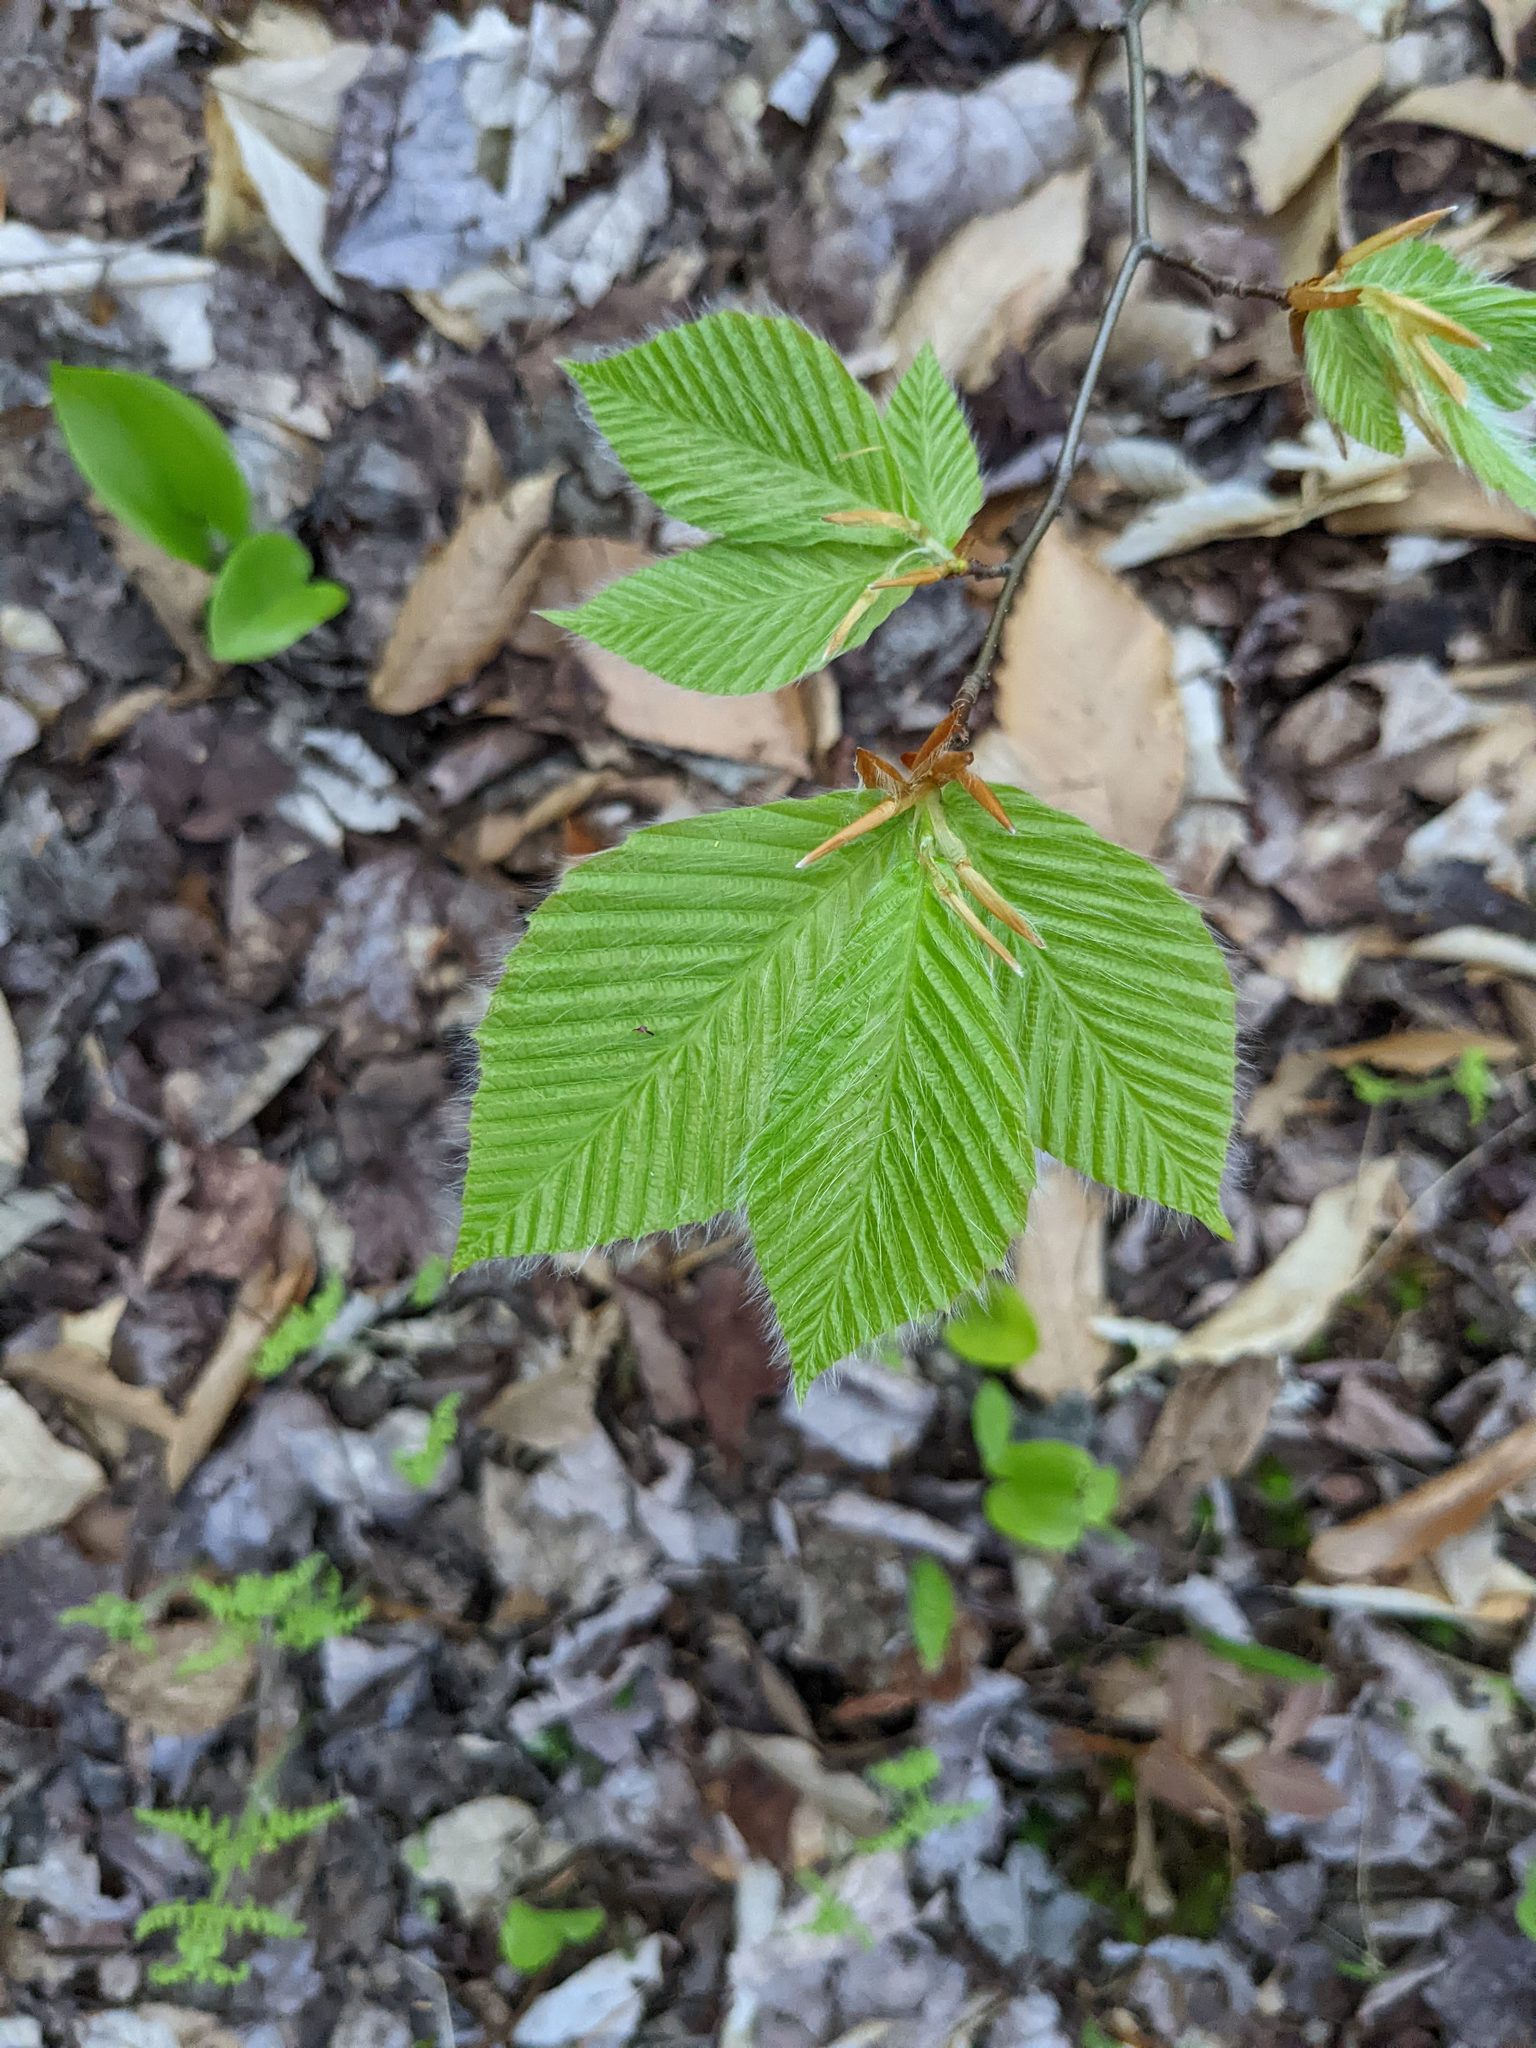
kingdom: Plantae
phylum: Tracheophyta
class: Magnoliopsida
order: Fagales
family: Fagaceae
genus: Fagus
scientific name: Fagus grandifolia
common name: American beech
